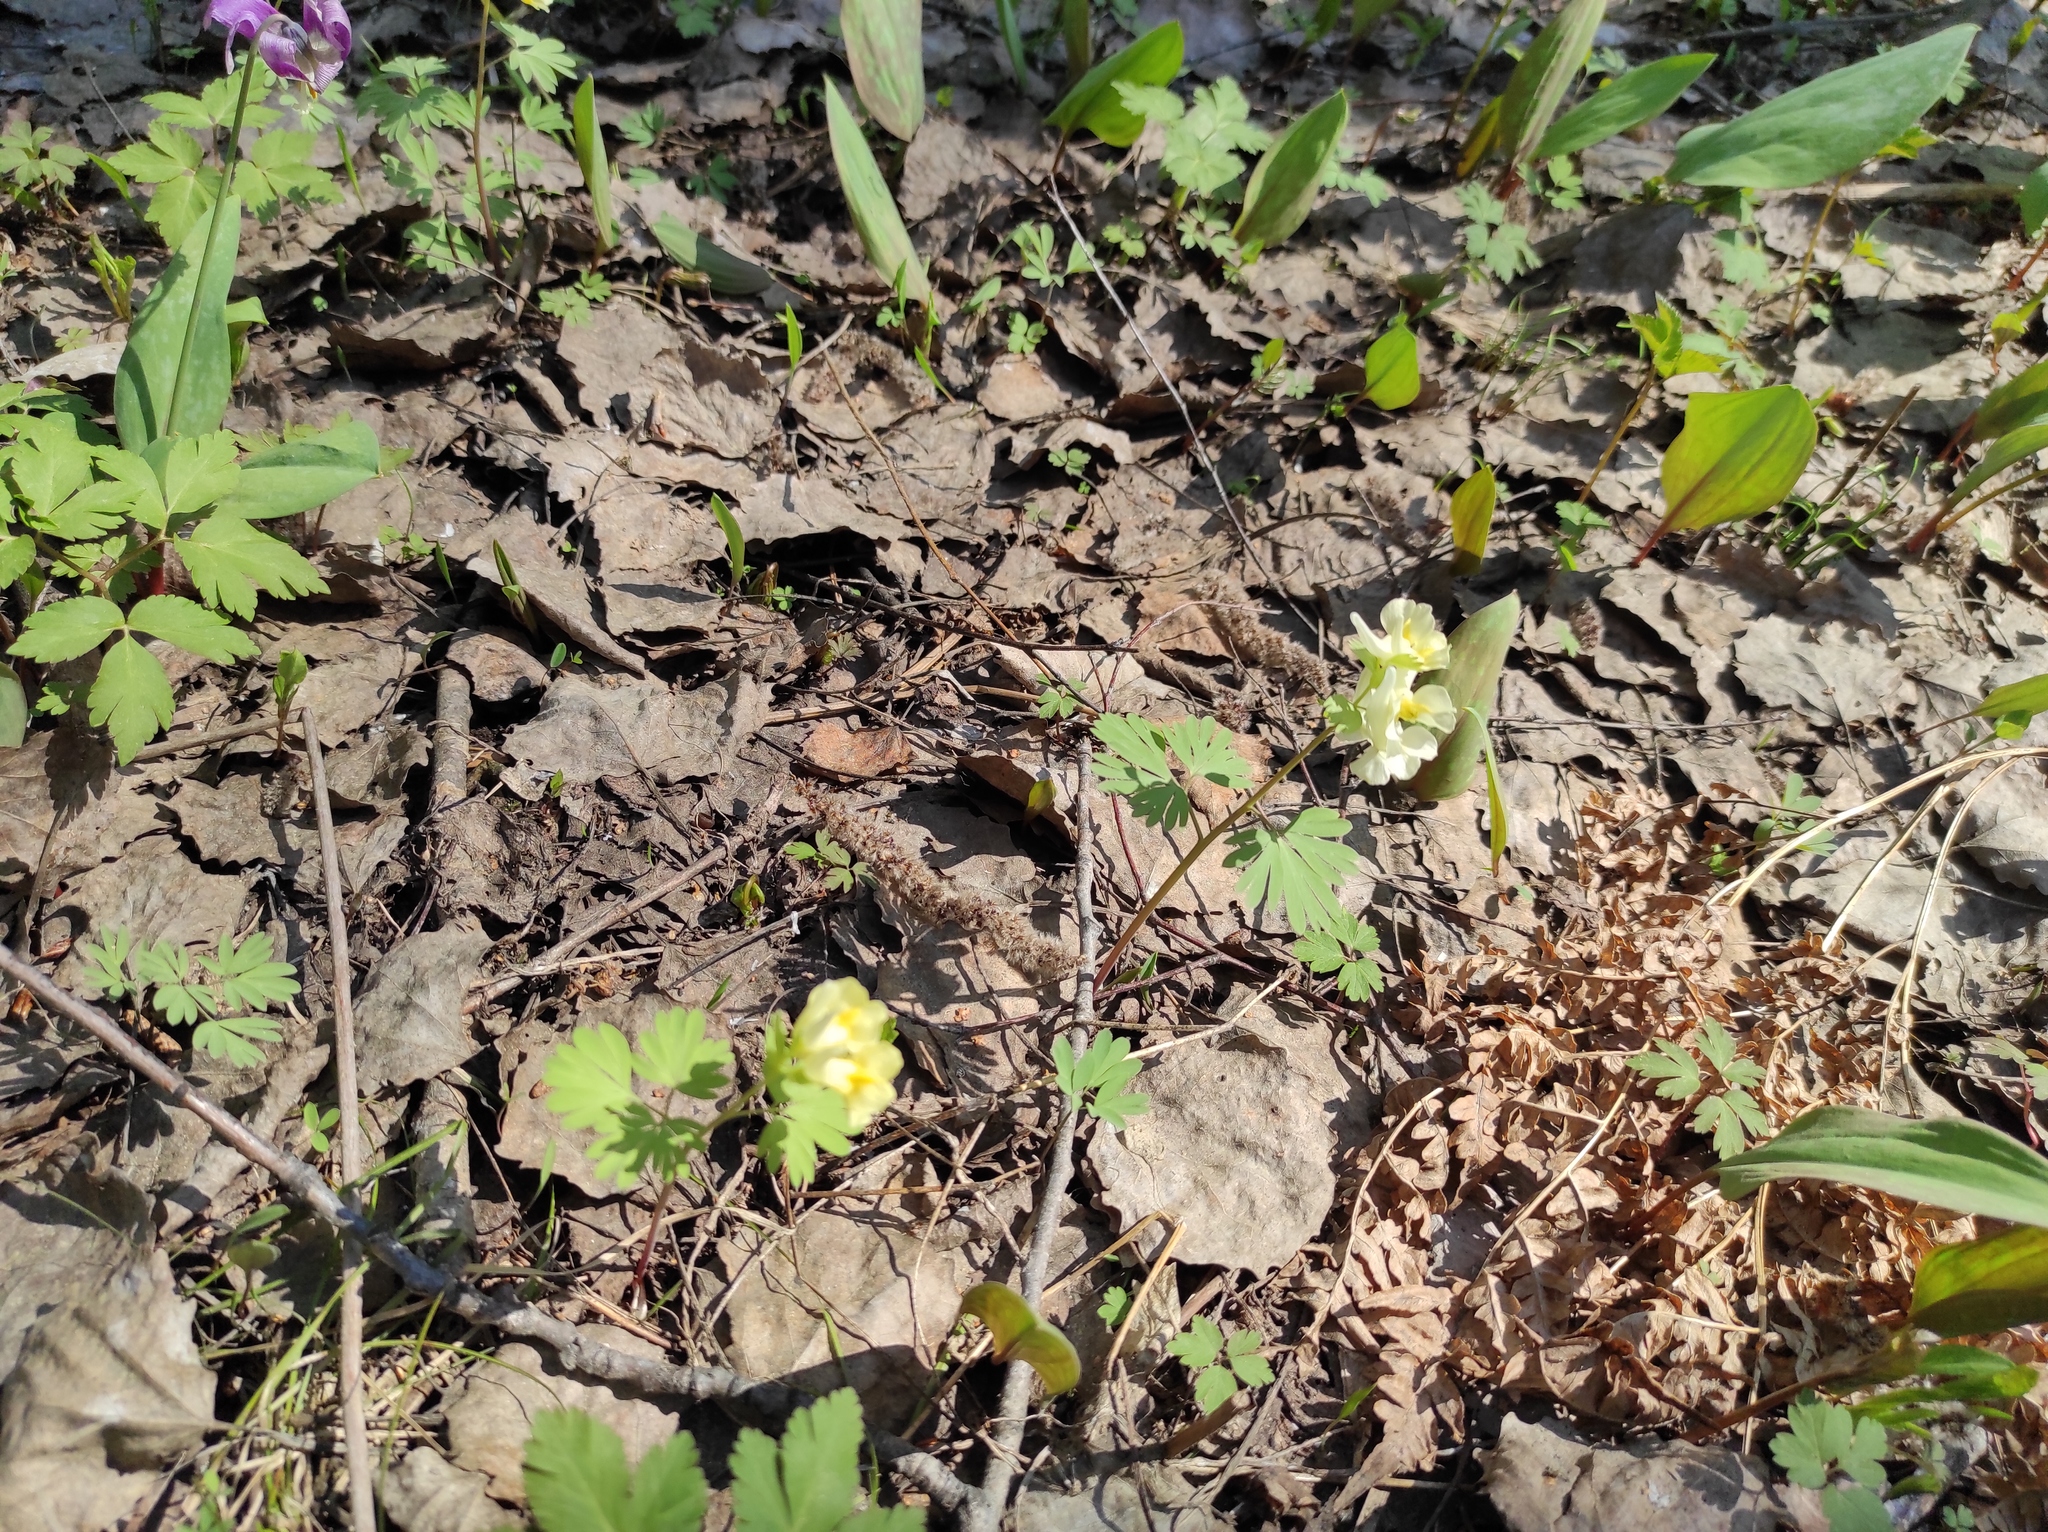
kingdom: Plantae
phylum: Tracheophyta
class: Liliopsida
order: Liliales
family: Liliaceae
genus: Erythronium
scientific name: Erythronium sibiricum
